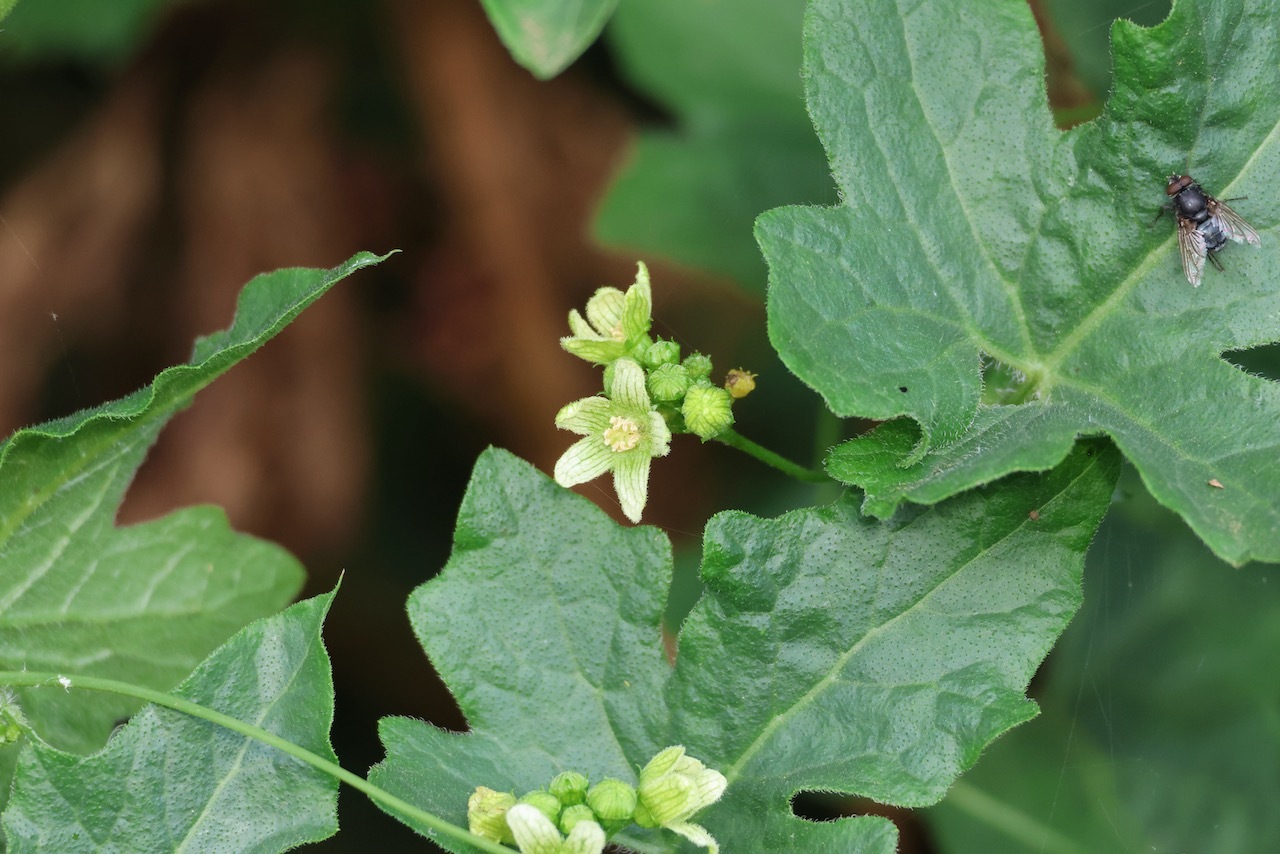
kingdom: Plantae
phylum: Tracheophyta
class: Magnoliopsida
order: Cucurbitales
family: Cucurbitaceae
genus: Bryonia
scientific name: Bryonia cretica
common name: Cretan bryony
